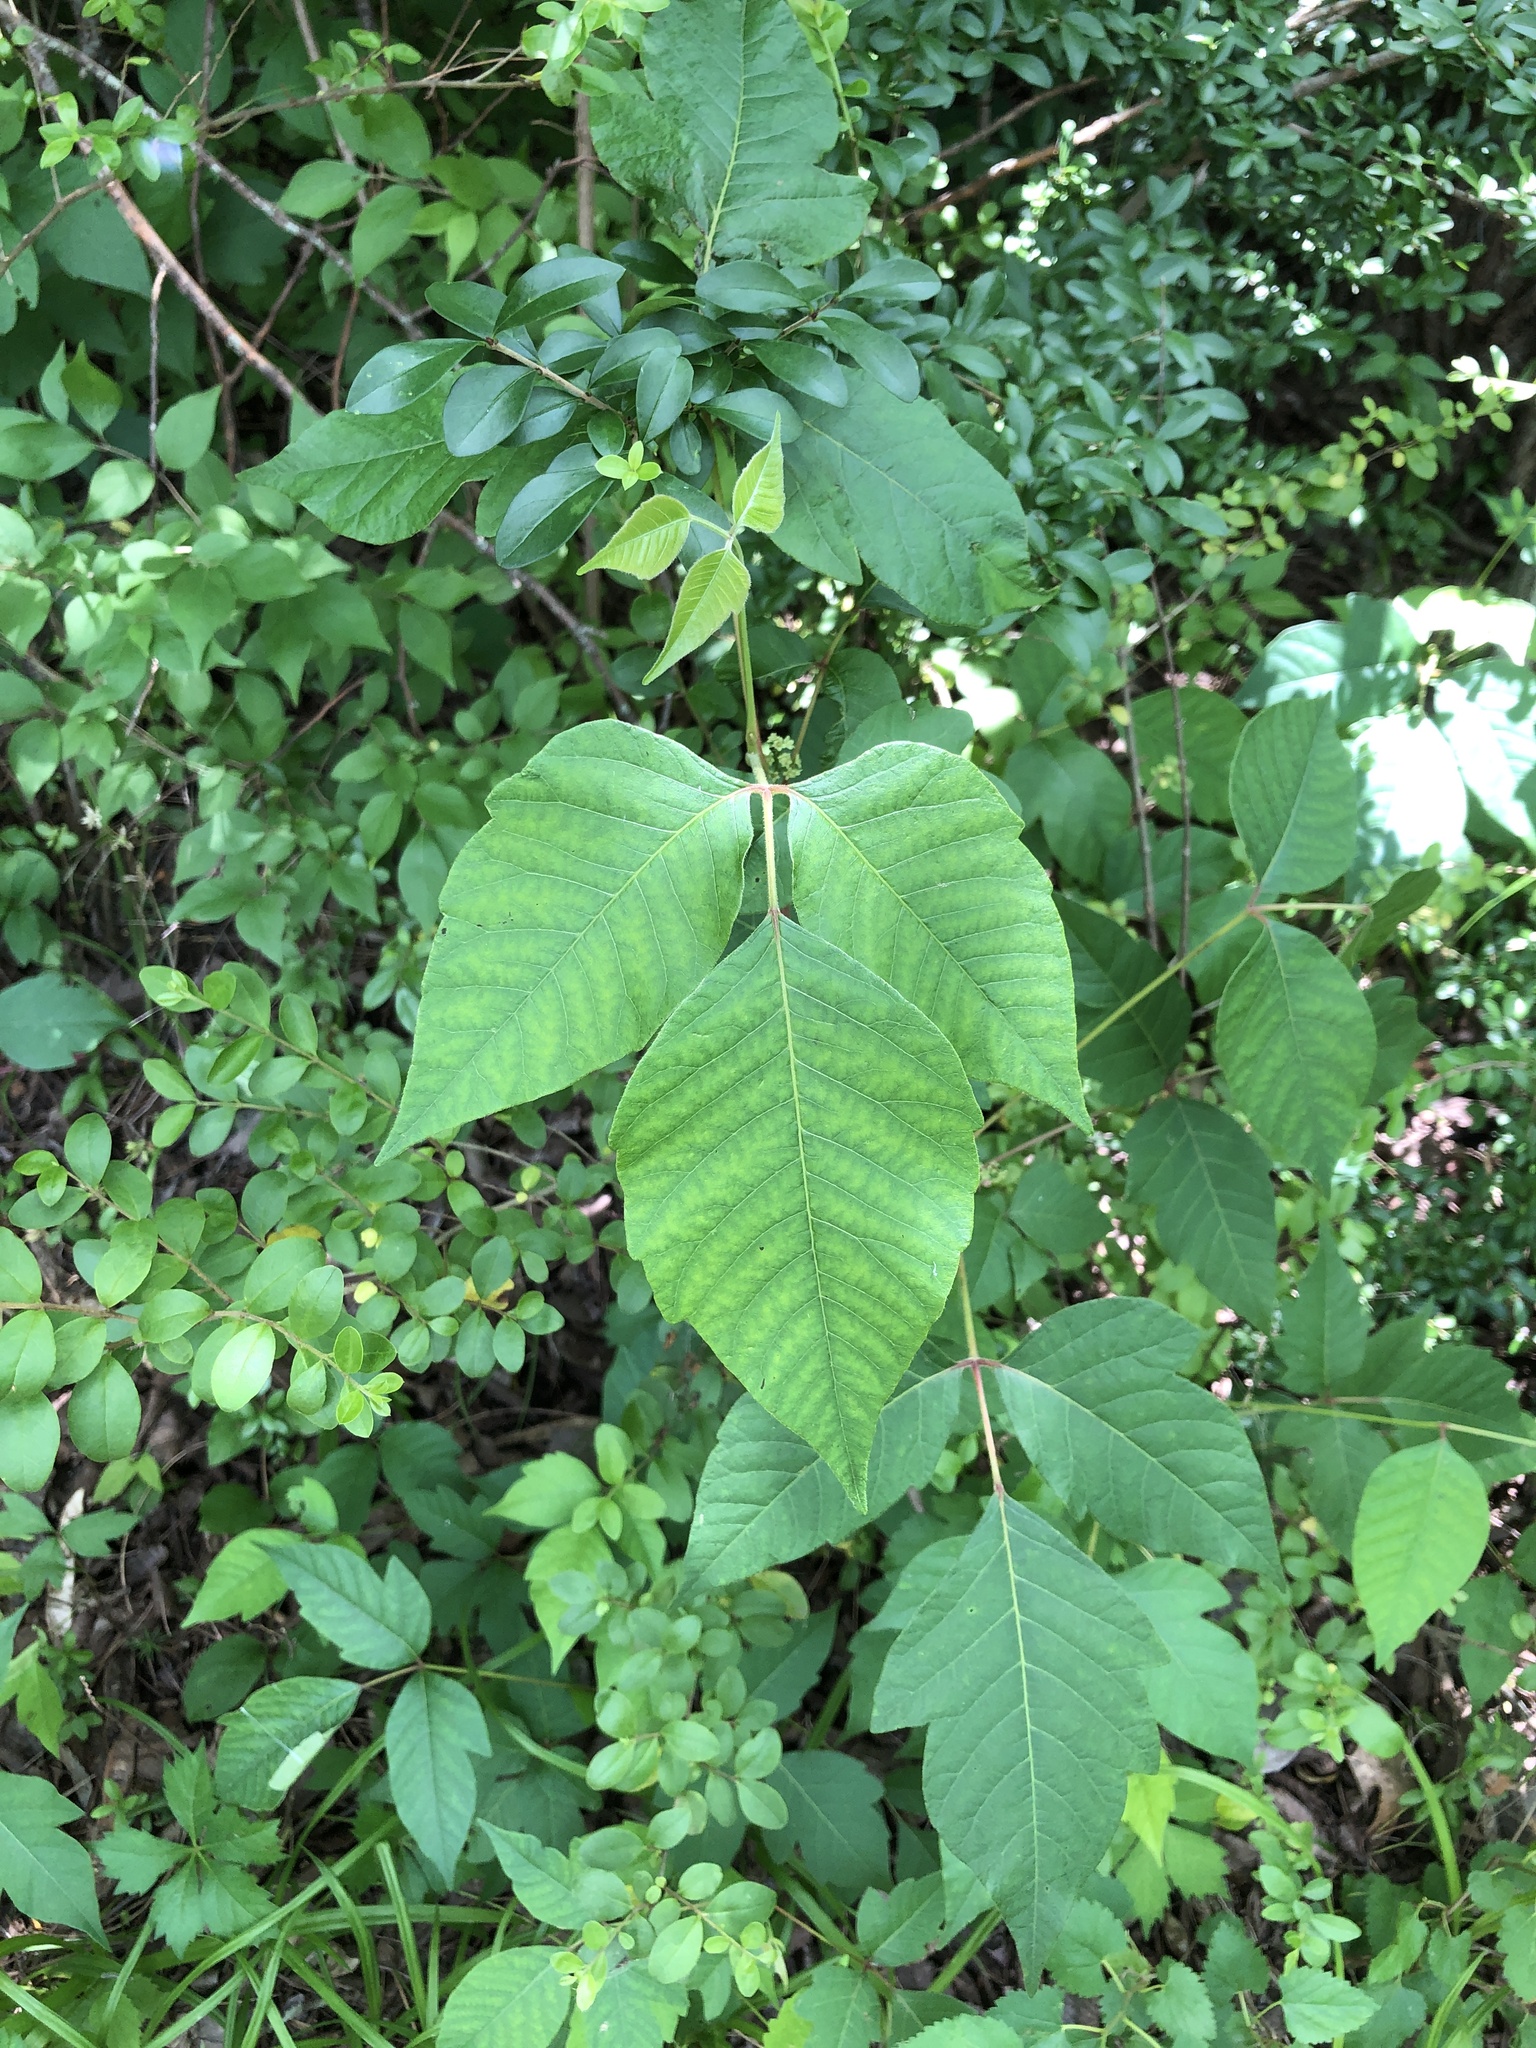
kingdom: Plantae
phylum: Tracheophyta
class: Magnoliopsida
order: Sapindales
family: Anacardiaceae
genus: Toxicodendron
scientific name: Toxicodendron radicans
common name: Poison ivy
